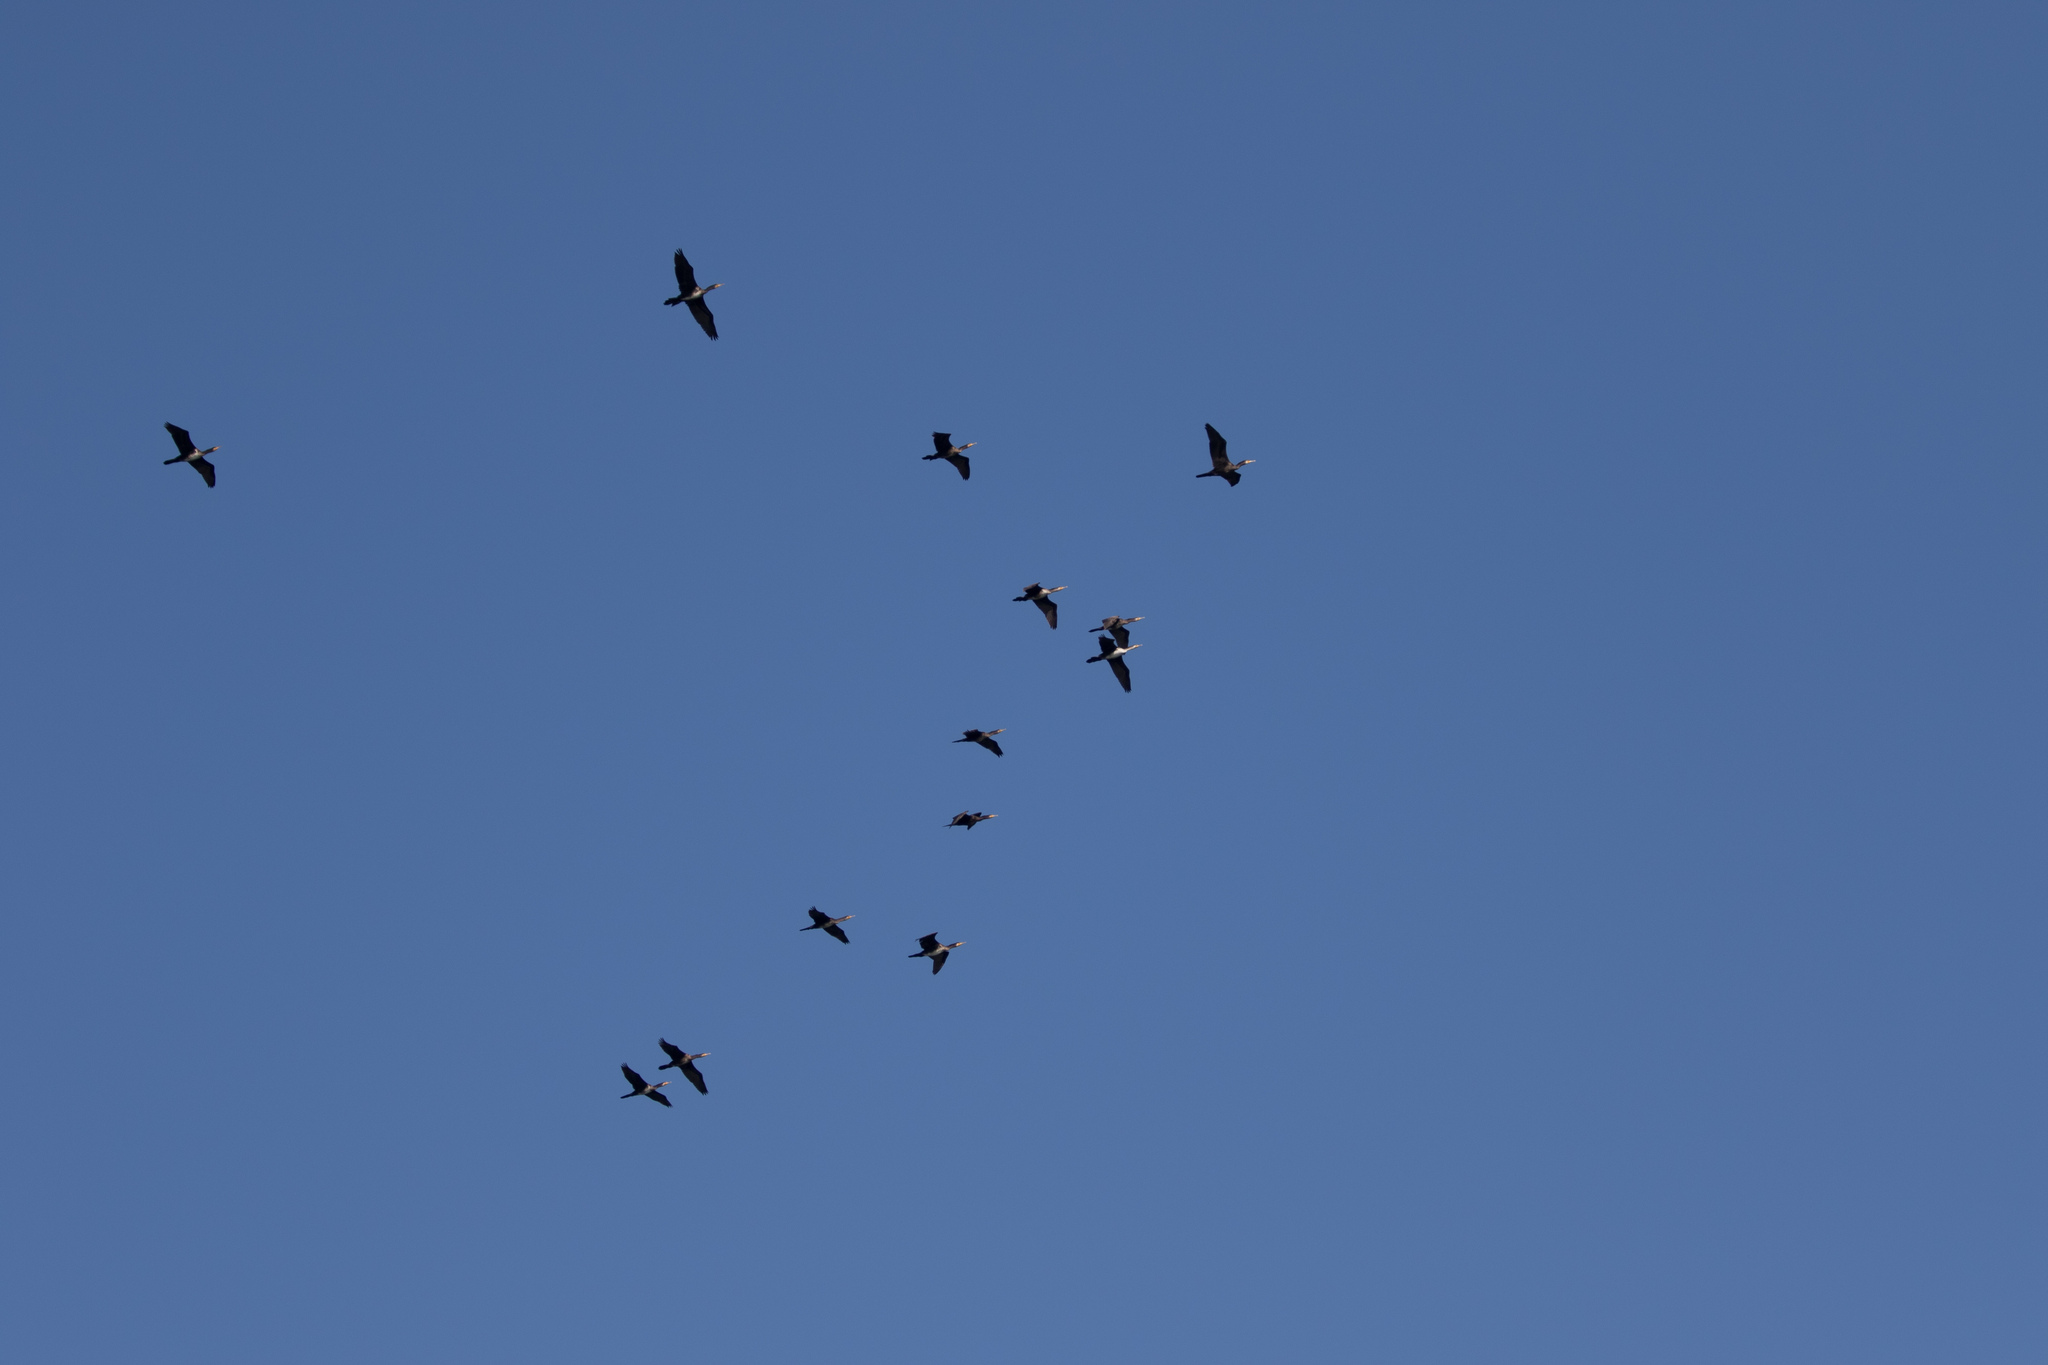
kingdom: Animalia
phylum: Chordata
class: Aves
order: Suliformes
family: Phalacrocoracidae
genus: Phalacrocorax
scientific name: Phalacrocorax carbo
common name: Great cormorant
